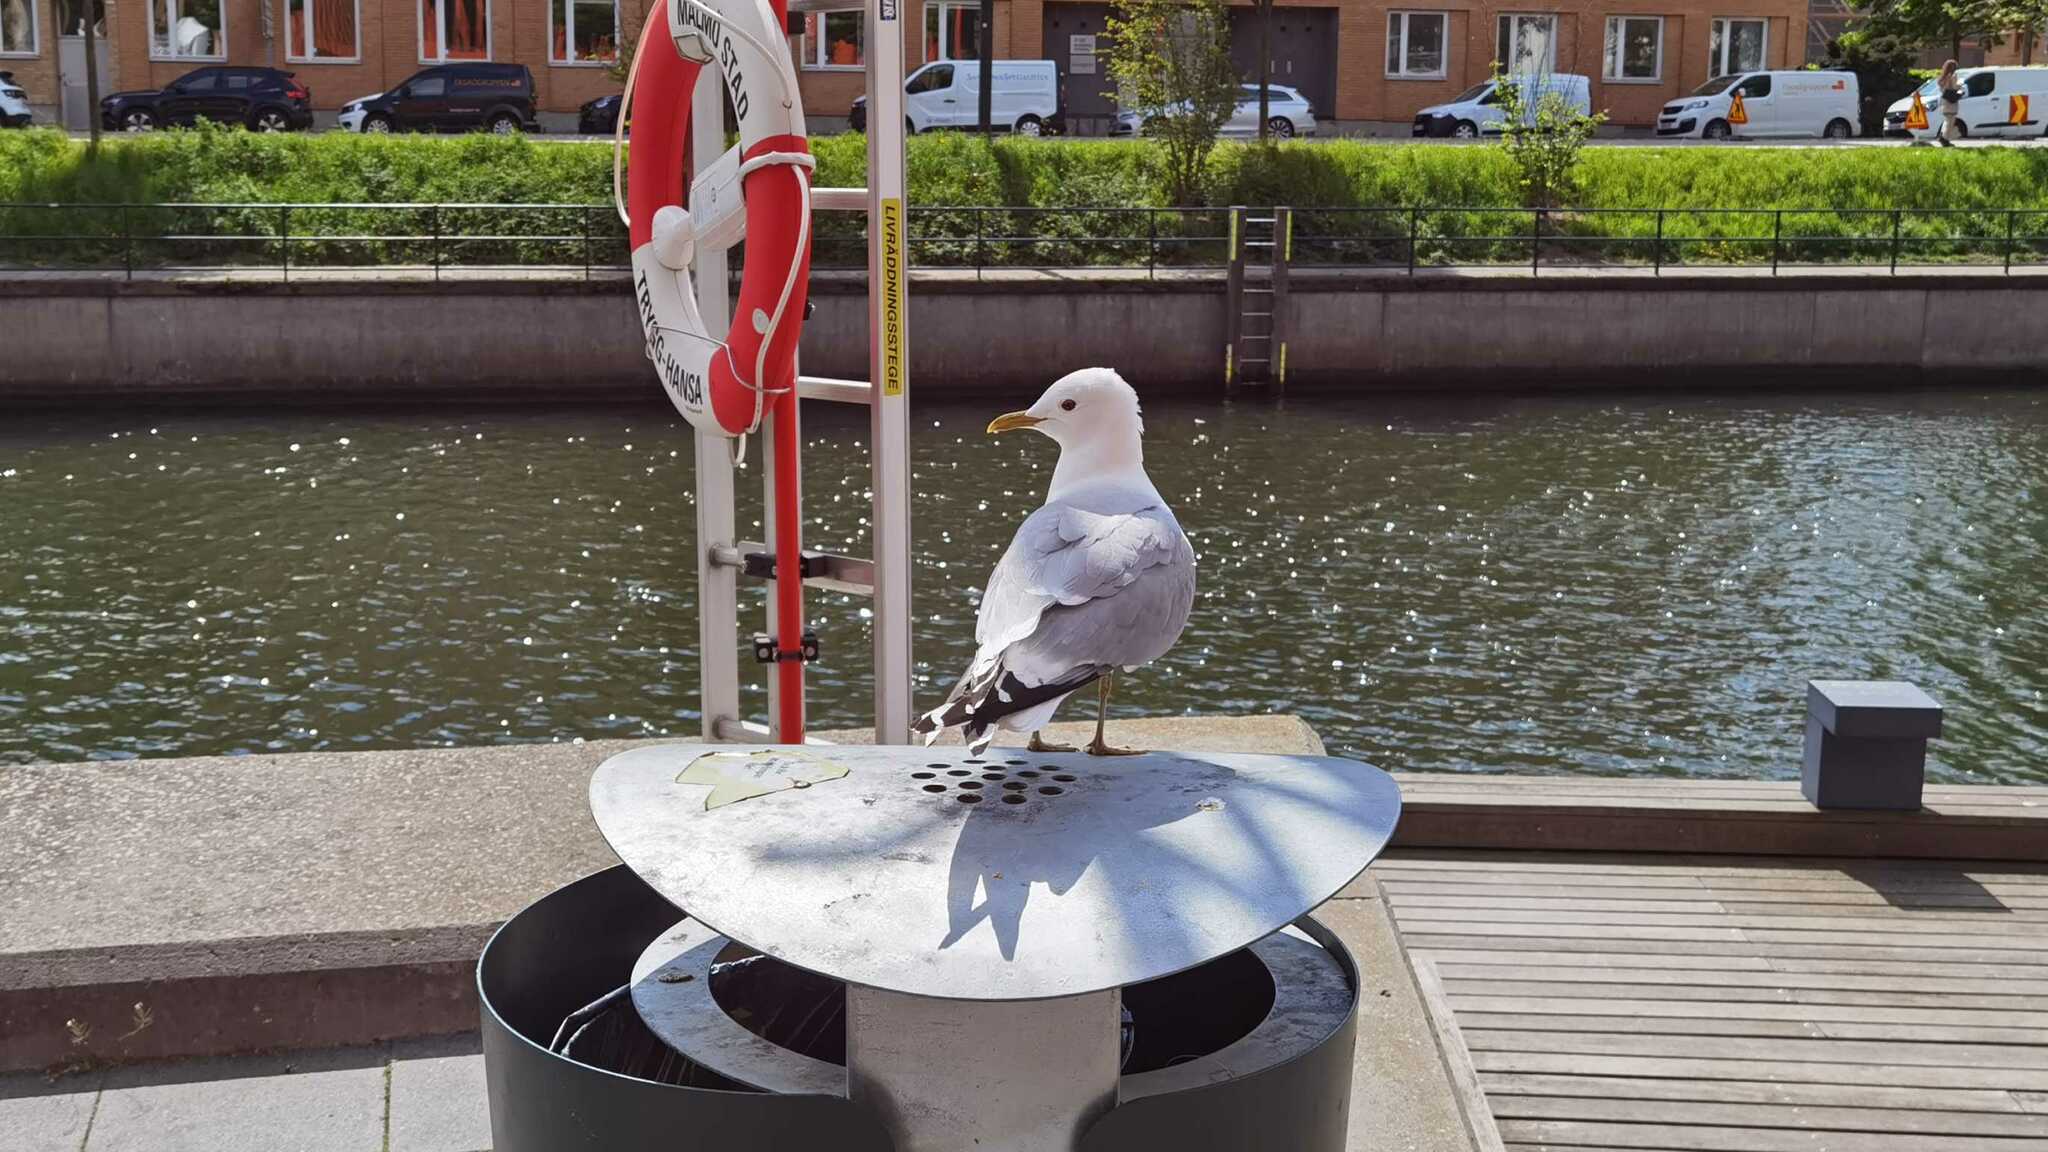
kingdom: Animalia
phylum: Chordata
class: Aves
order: Charadriiformes
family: Laridae
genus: Larus
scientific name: Larus canus
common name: Mew gull
